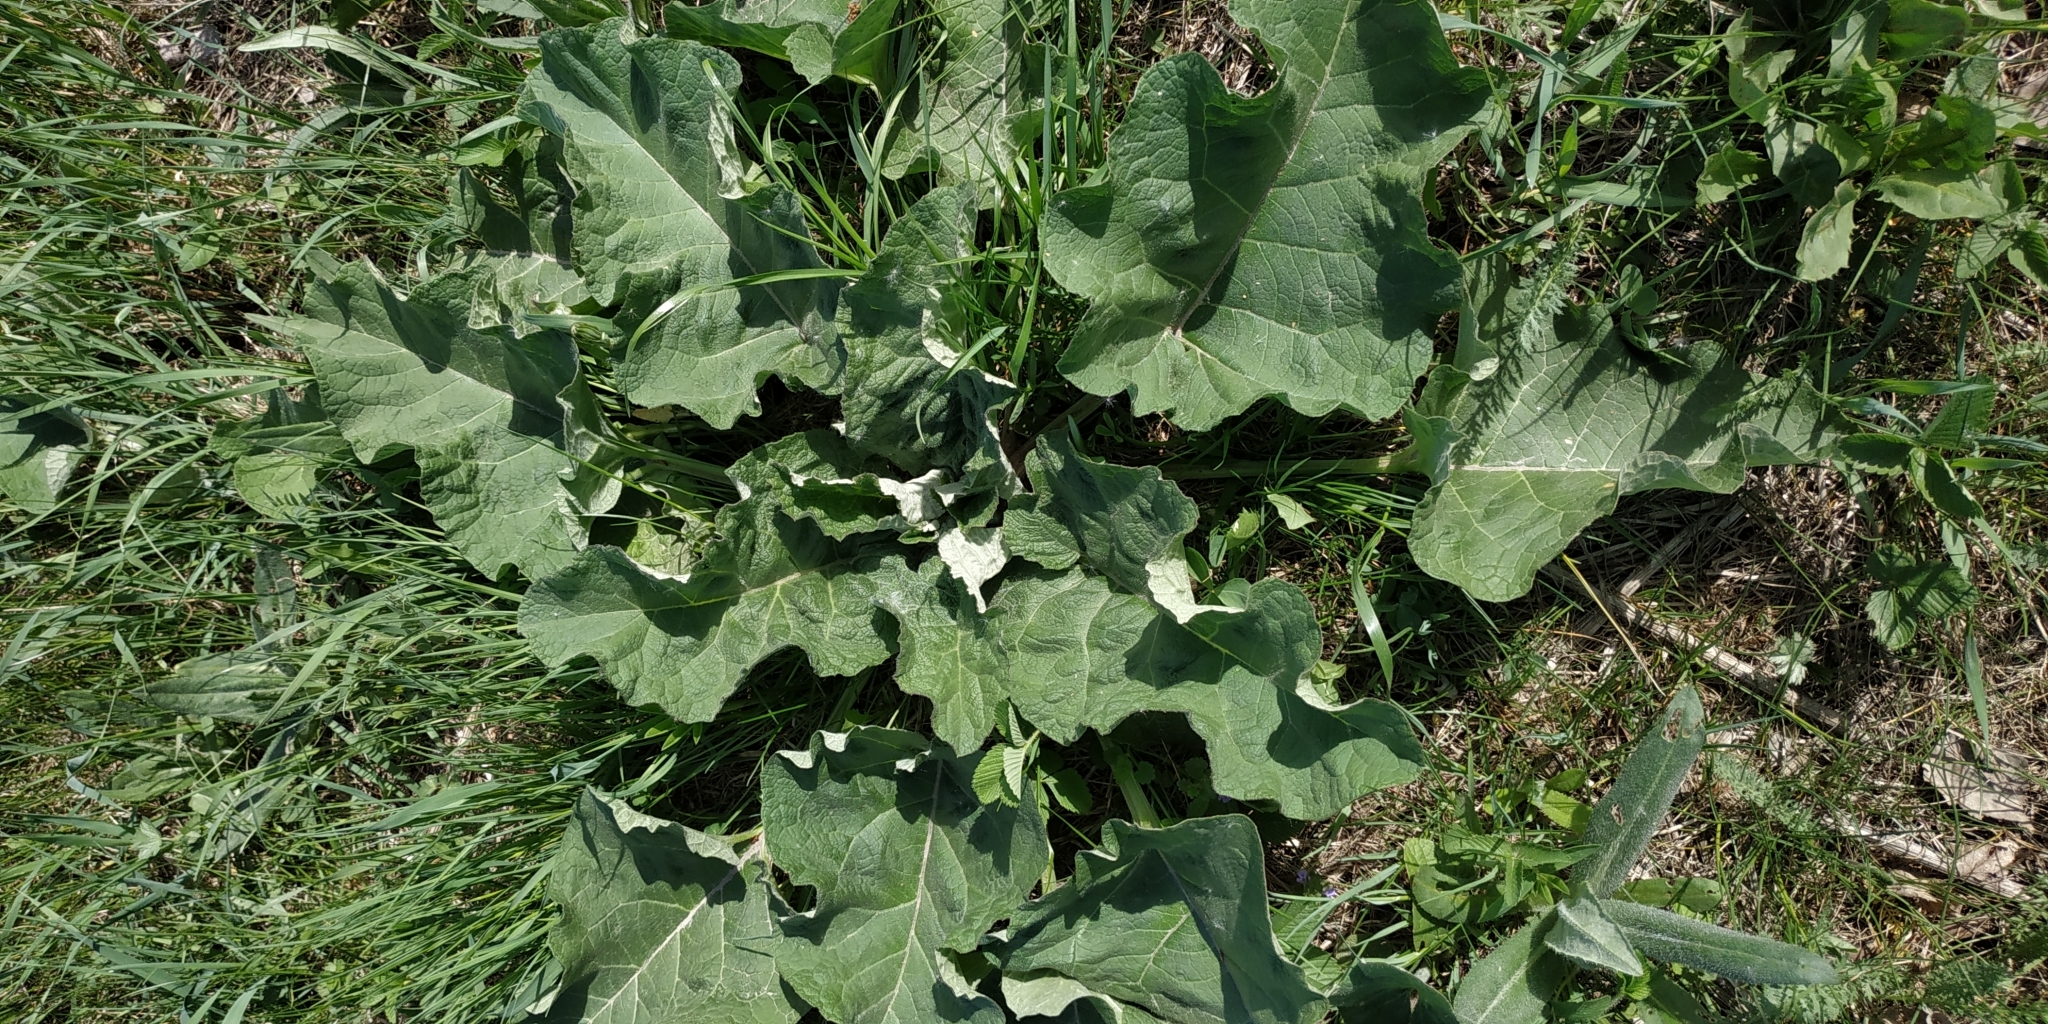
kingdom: Plantae
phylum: Tracheophyta
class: Magnoliopsida
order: Asterales
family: Asteraceae
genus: Arctium
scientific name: Arctium tomentosum
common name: Woolly burdock
